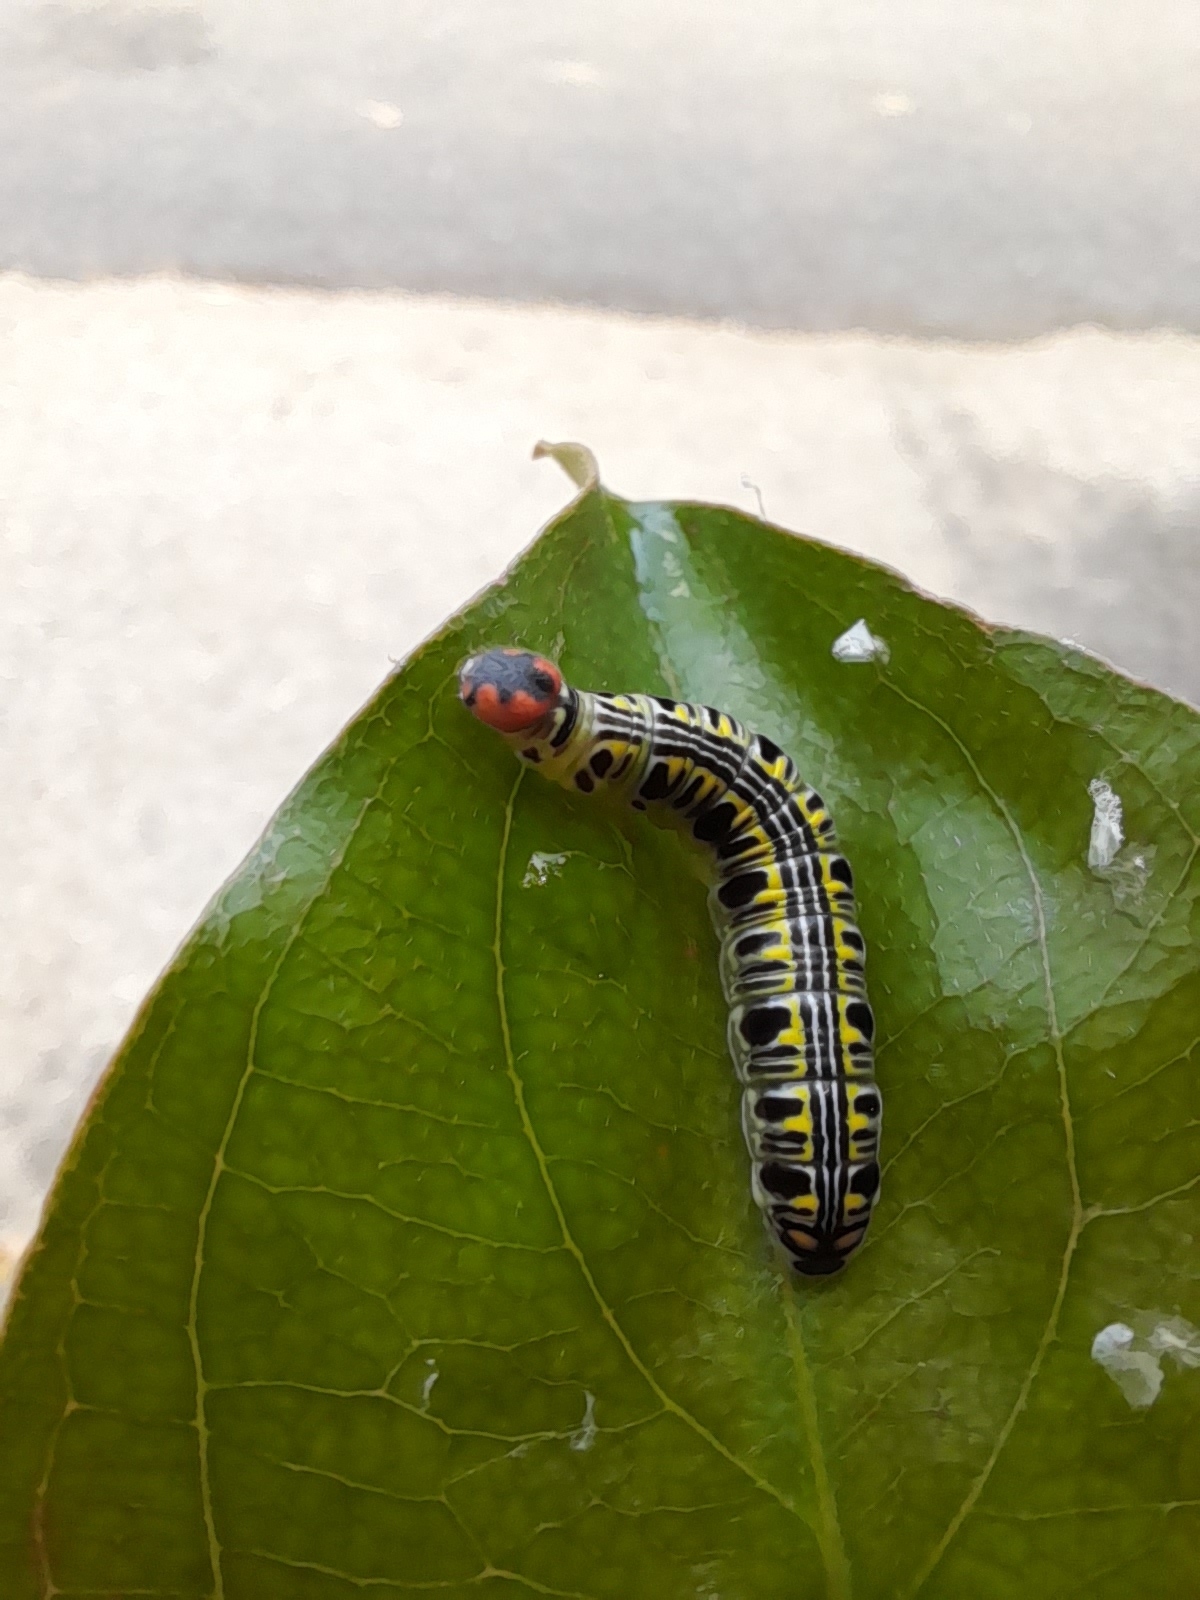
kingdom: Animalia
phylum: Arthropoda
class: Insecta
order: Lepidoptera
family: Hesperiidae
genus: Bibasis
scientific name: Bibasis sena
